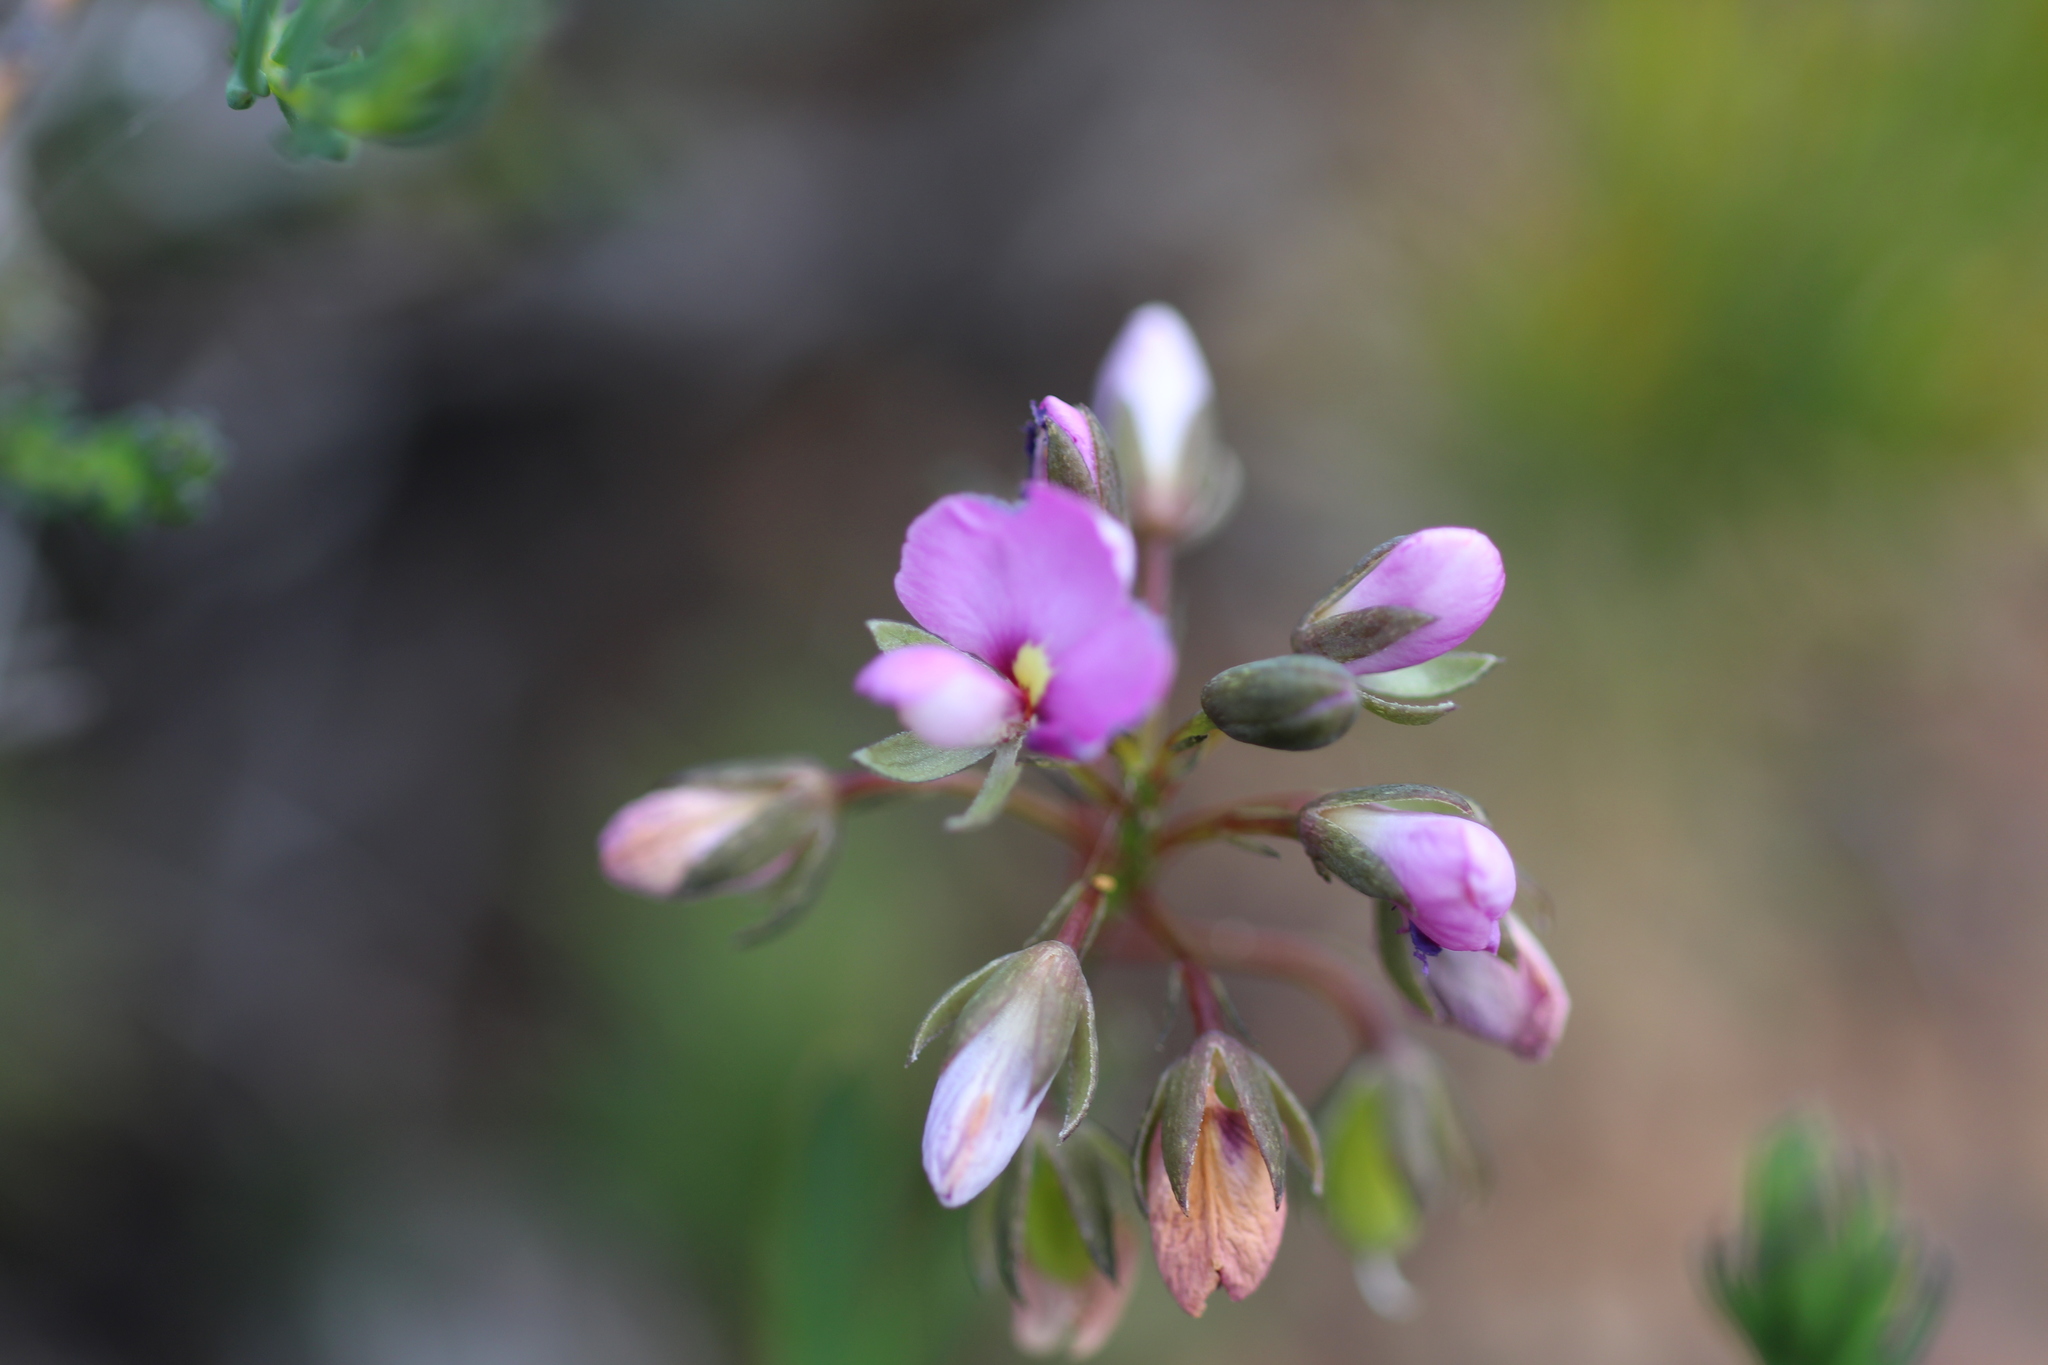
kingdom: Plantae
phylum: Tracheophyta
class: Magnoliopsida
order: Fabales
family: Fabaceae
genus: Gompholobium
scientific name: Gompholobium knightianum
